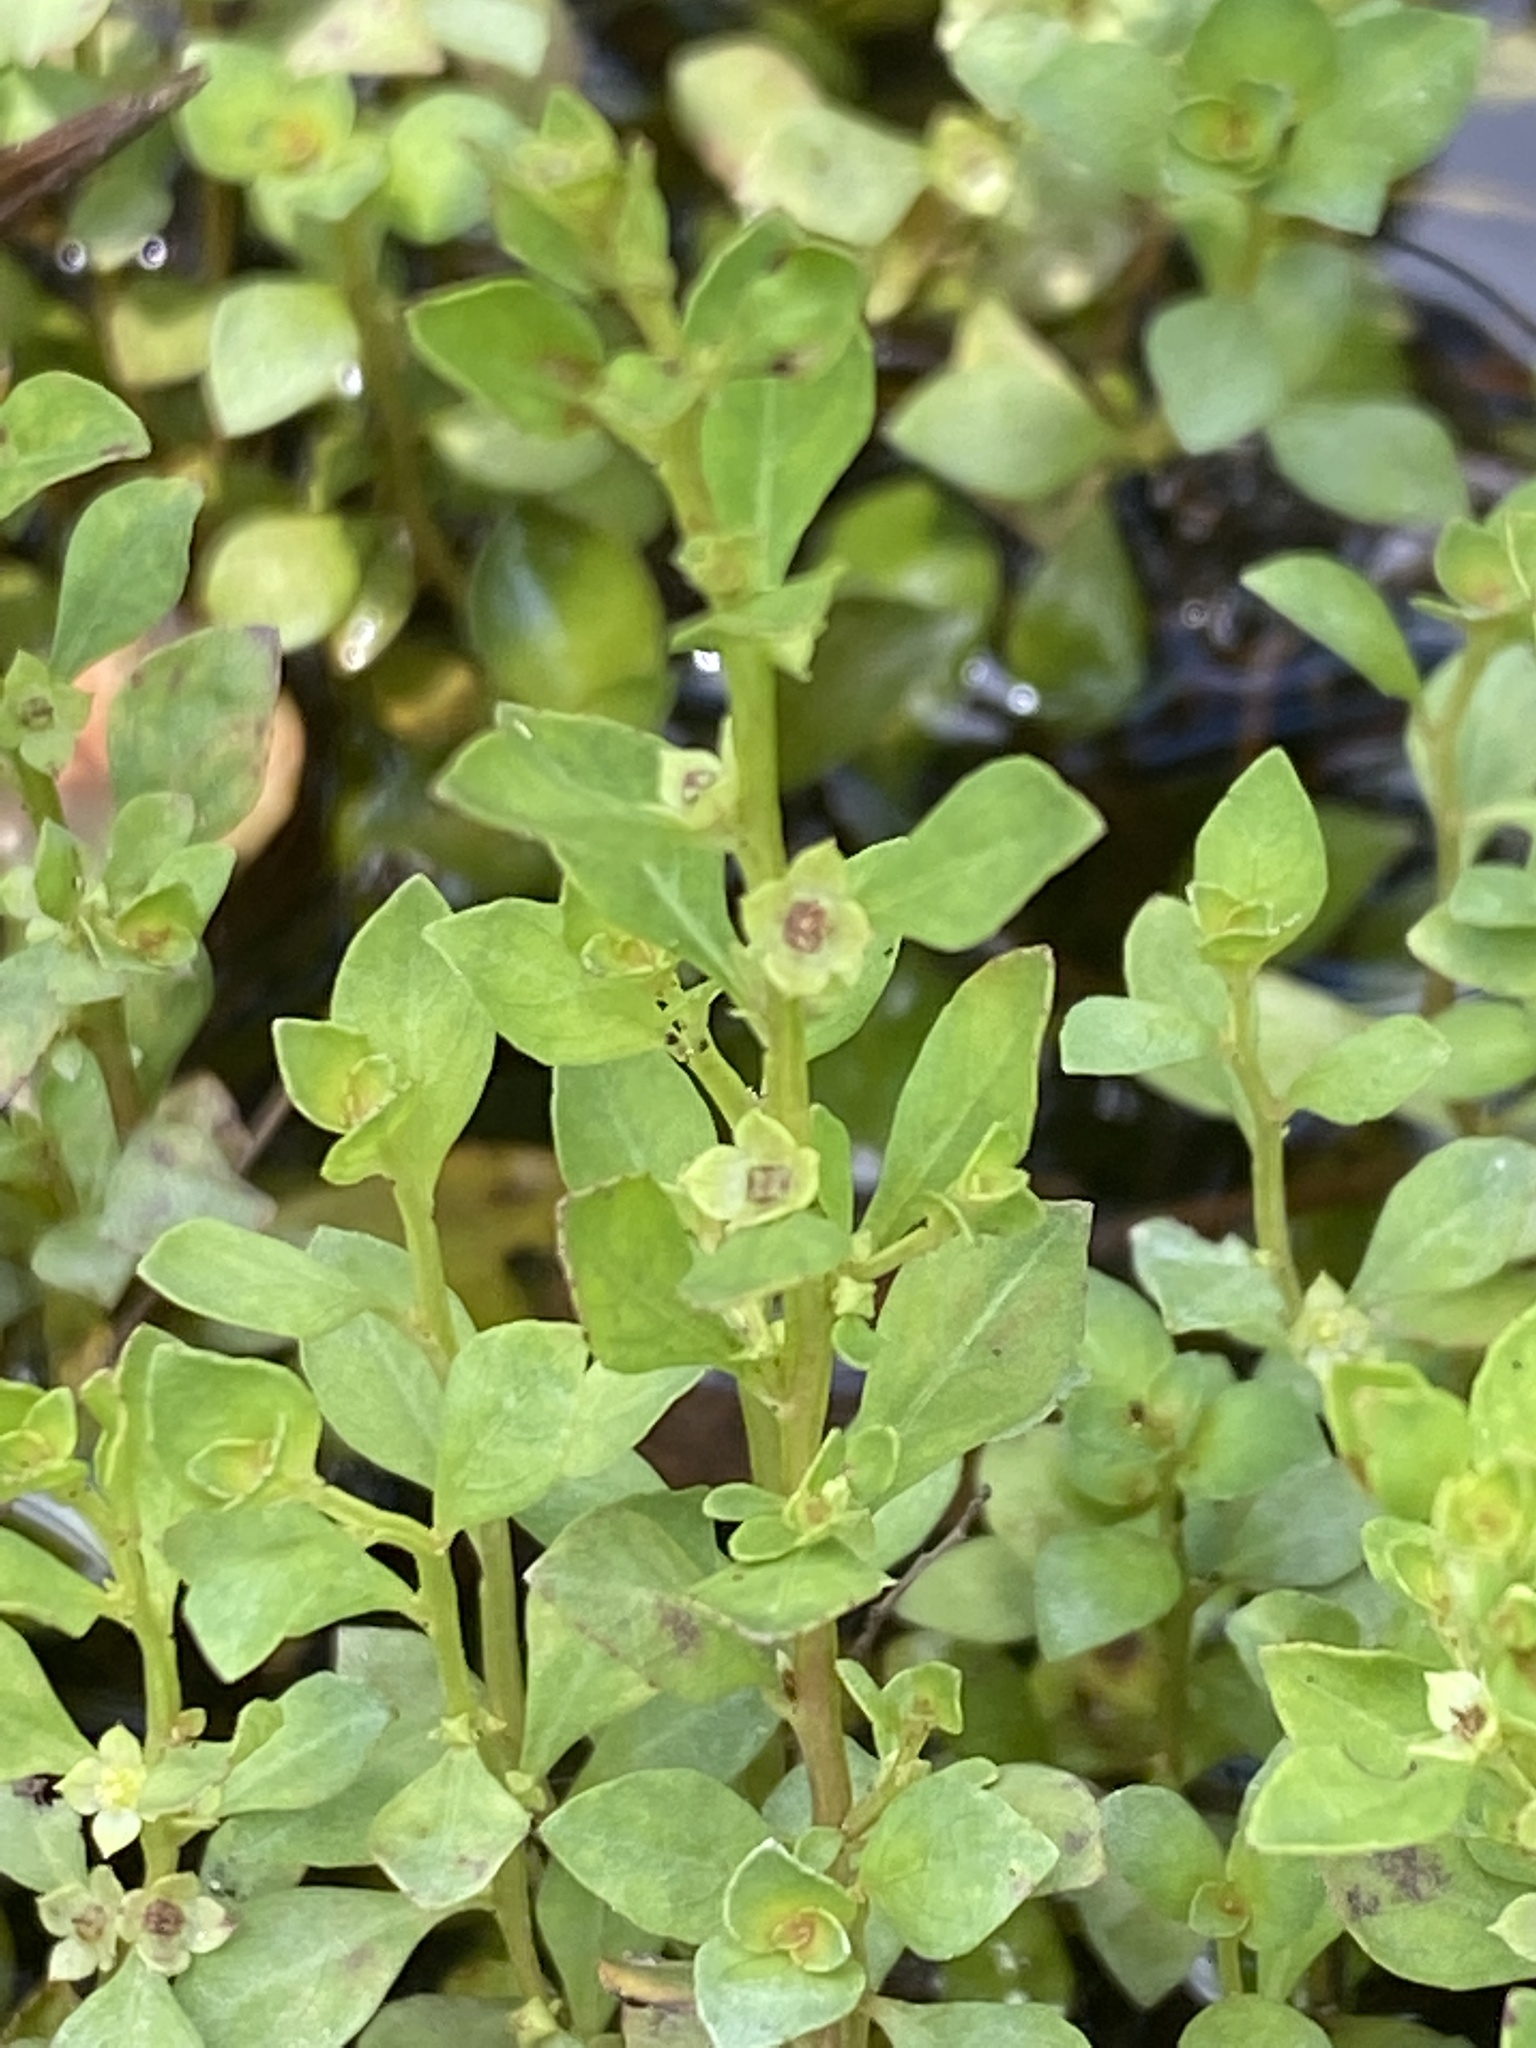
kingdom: Plantae
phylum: Tracheophyta
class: Magnoliopsida
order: Myrtales
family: Onagraceae
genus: Ludwigia
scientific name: Ludwigia microcarpa
